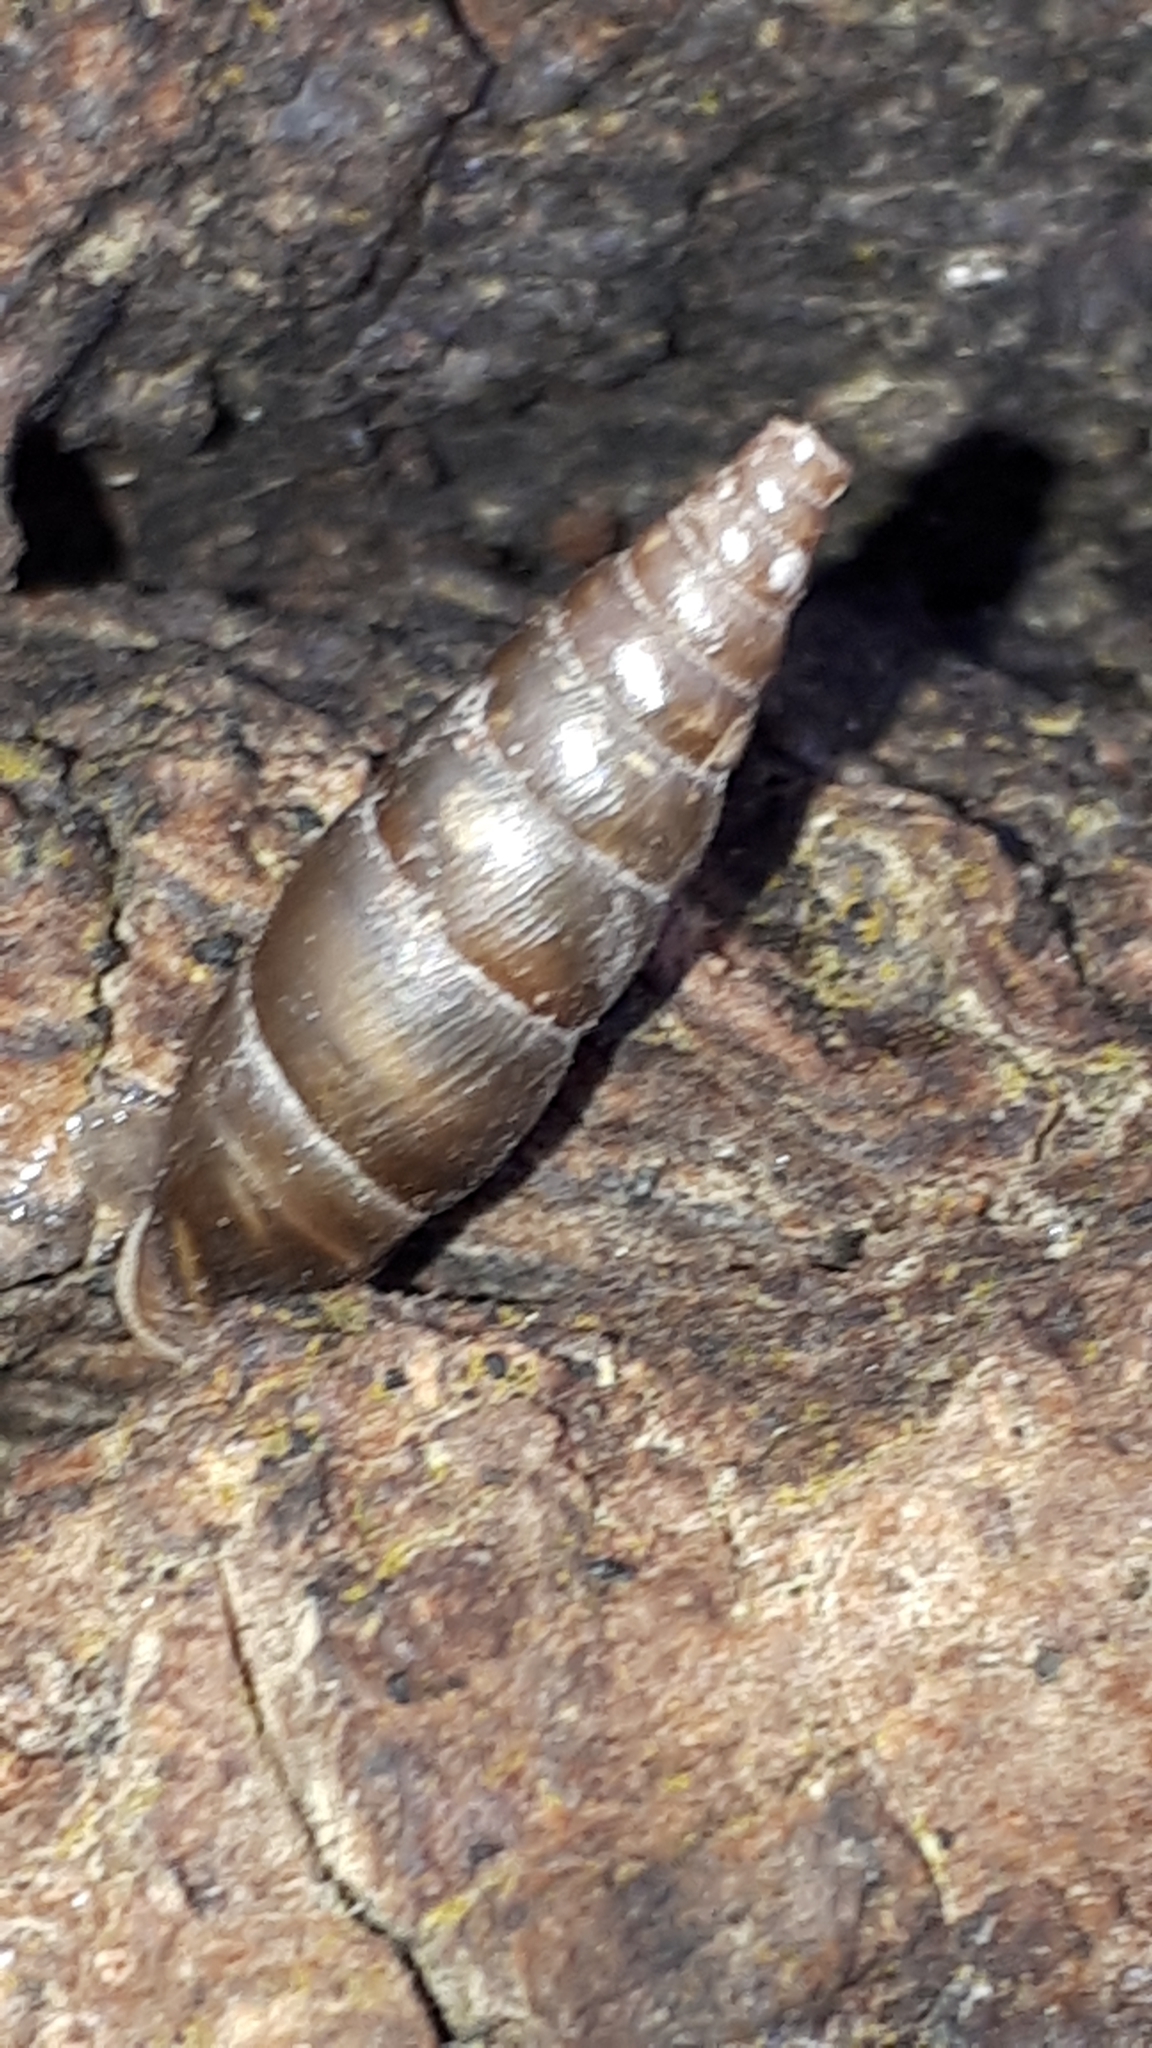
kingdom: Animalia
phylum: Mollusca
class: Gastropoda
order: Stylommatophora
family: Clausiliidae
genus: Cochlodina
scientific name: Cochlodina laminata
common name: Plaited door snail
